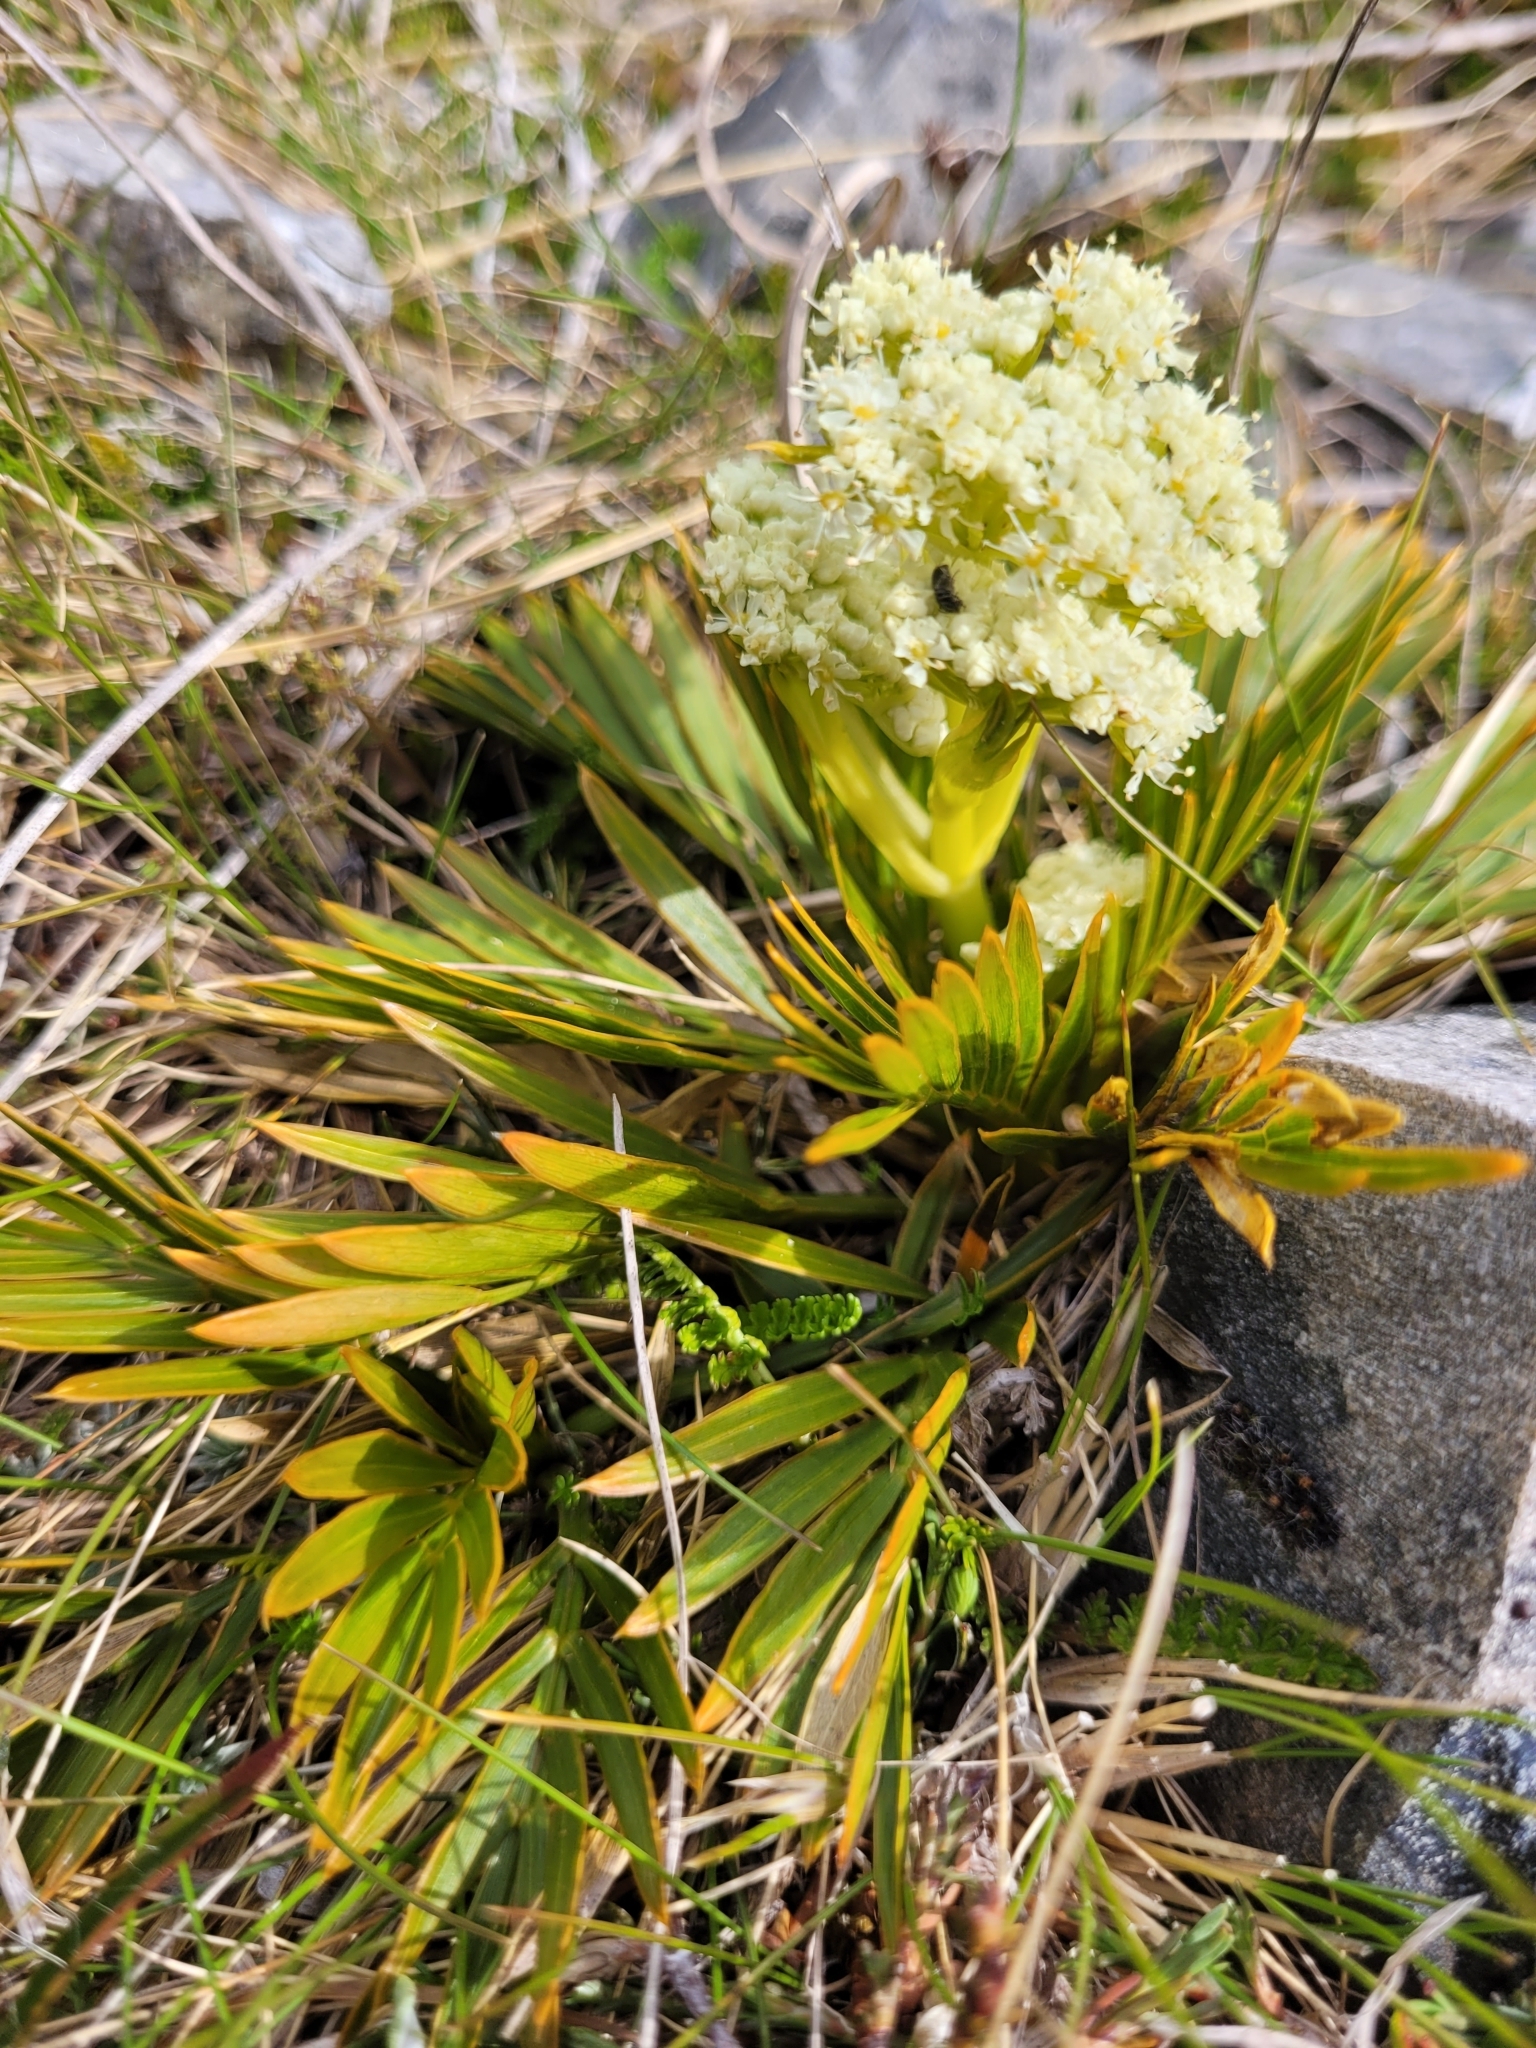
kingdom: Plantae
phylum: Tracheophyta
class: Magnoliopsida
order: Apiales
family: Apiaceae
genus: Aciphylla
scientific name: Aciphylla similis
